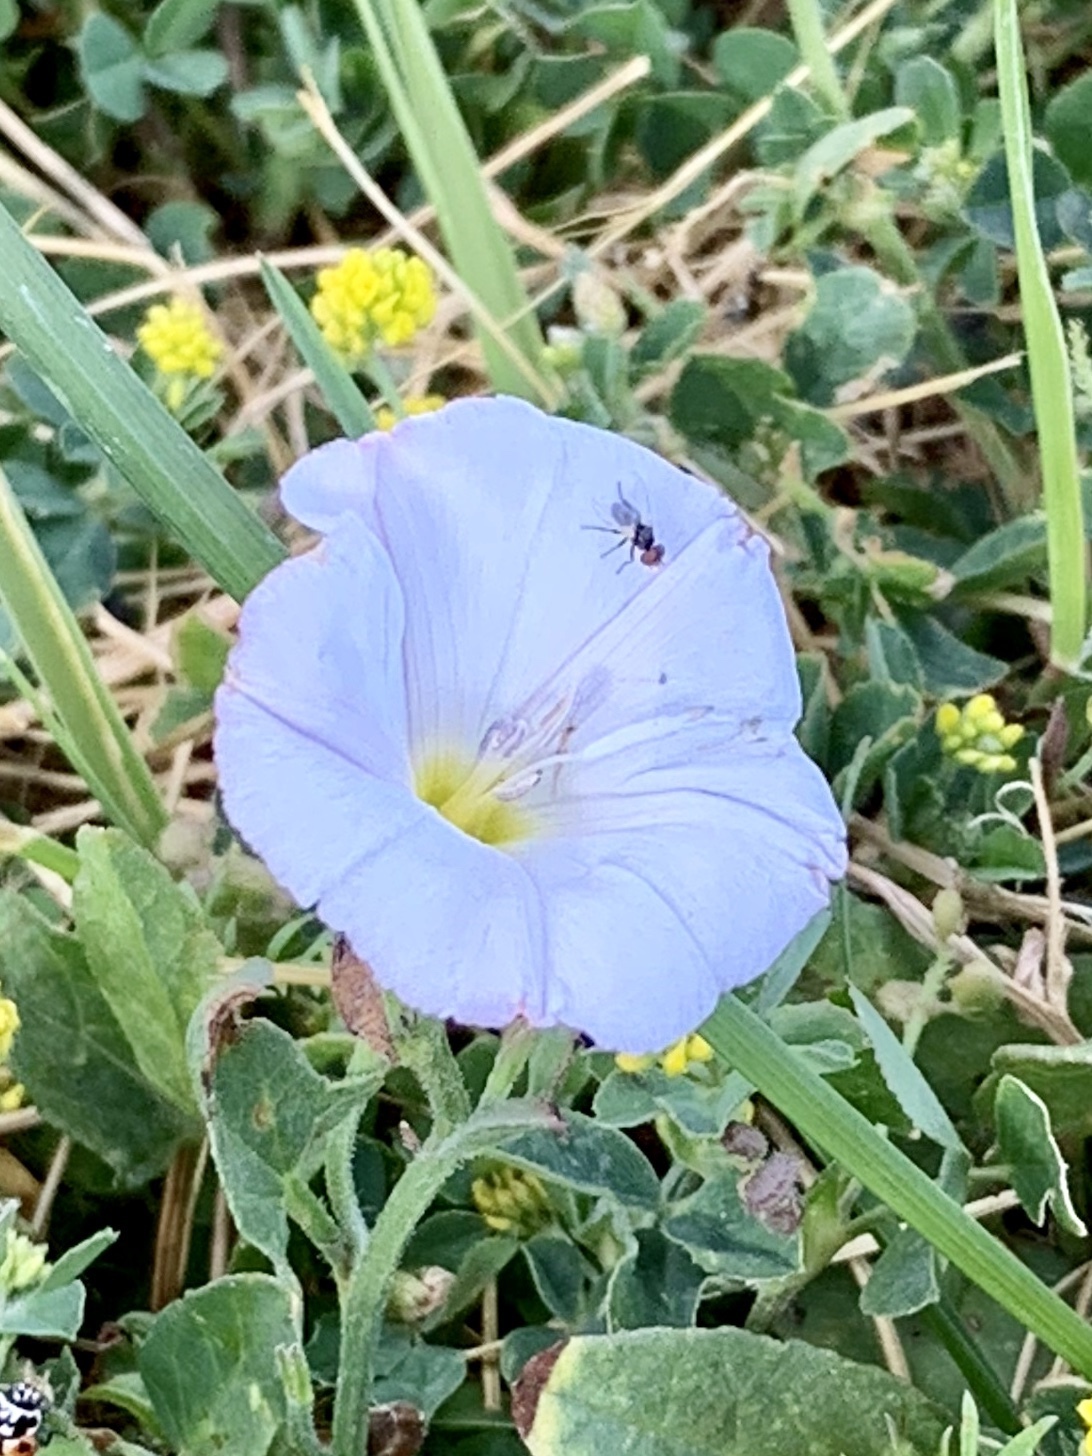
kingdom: Plantae
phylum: Tracheophyta
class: Magnoliopsida
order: Solanales
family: Convolvulaceae
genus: Convolvulus
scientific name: Convolvulus arvensis
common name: Field bindweed
